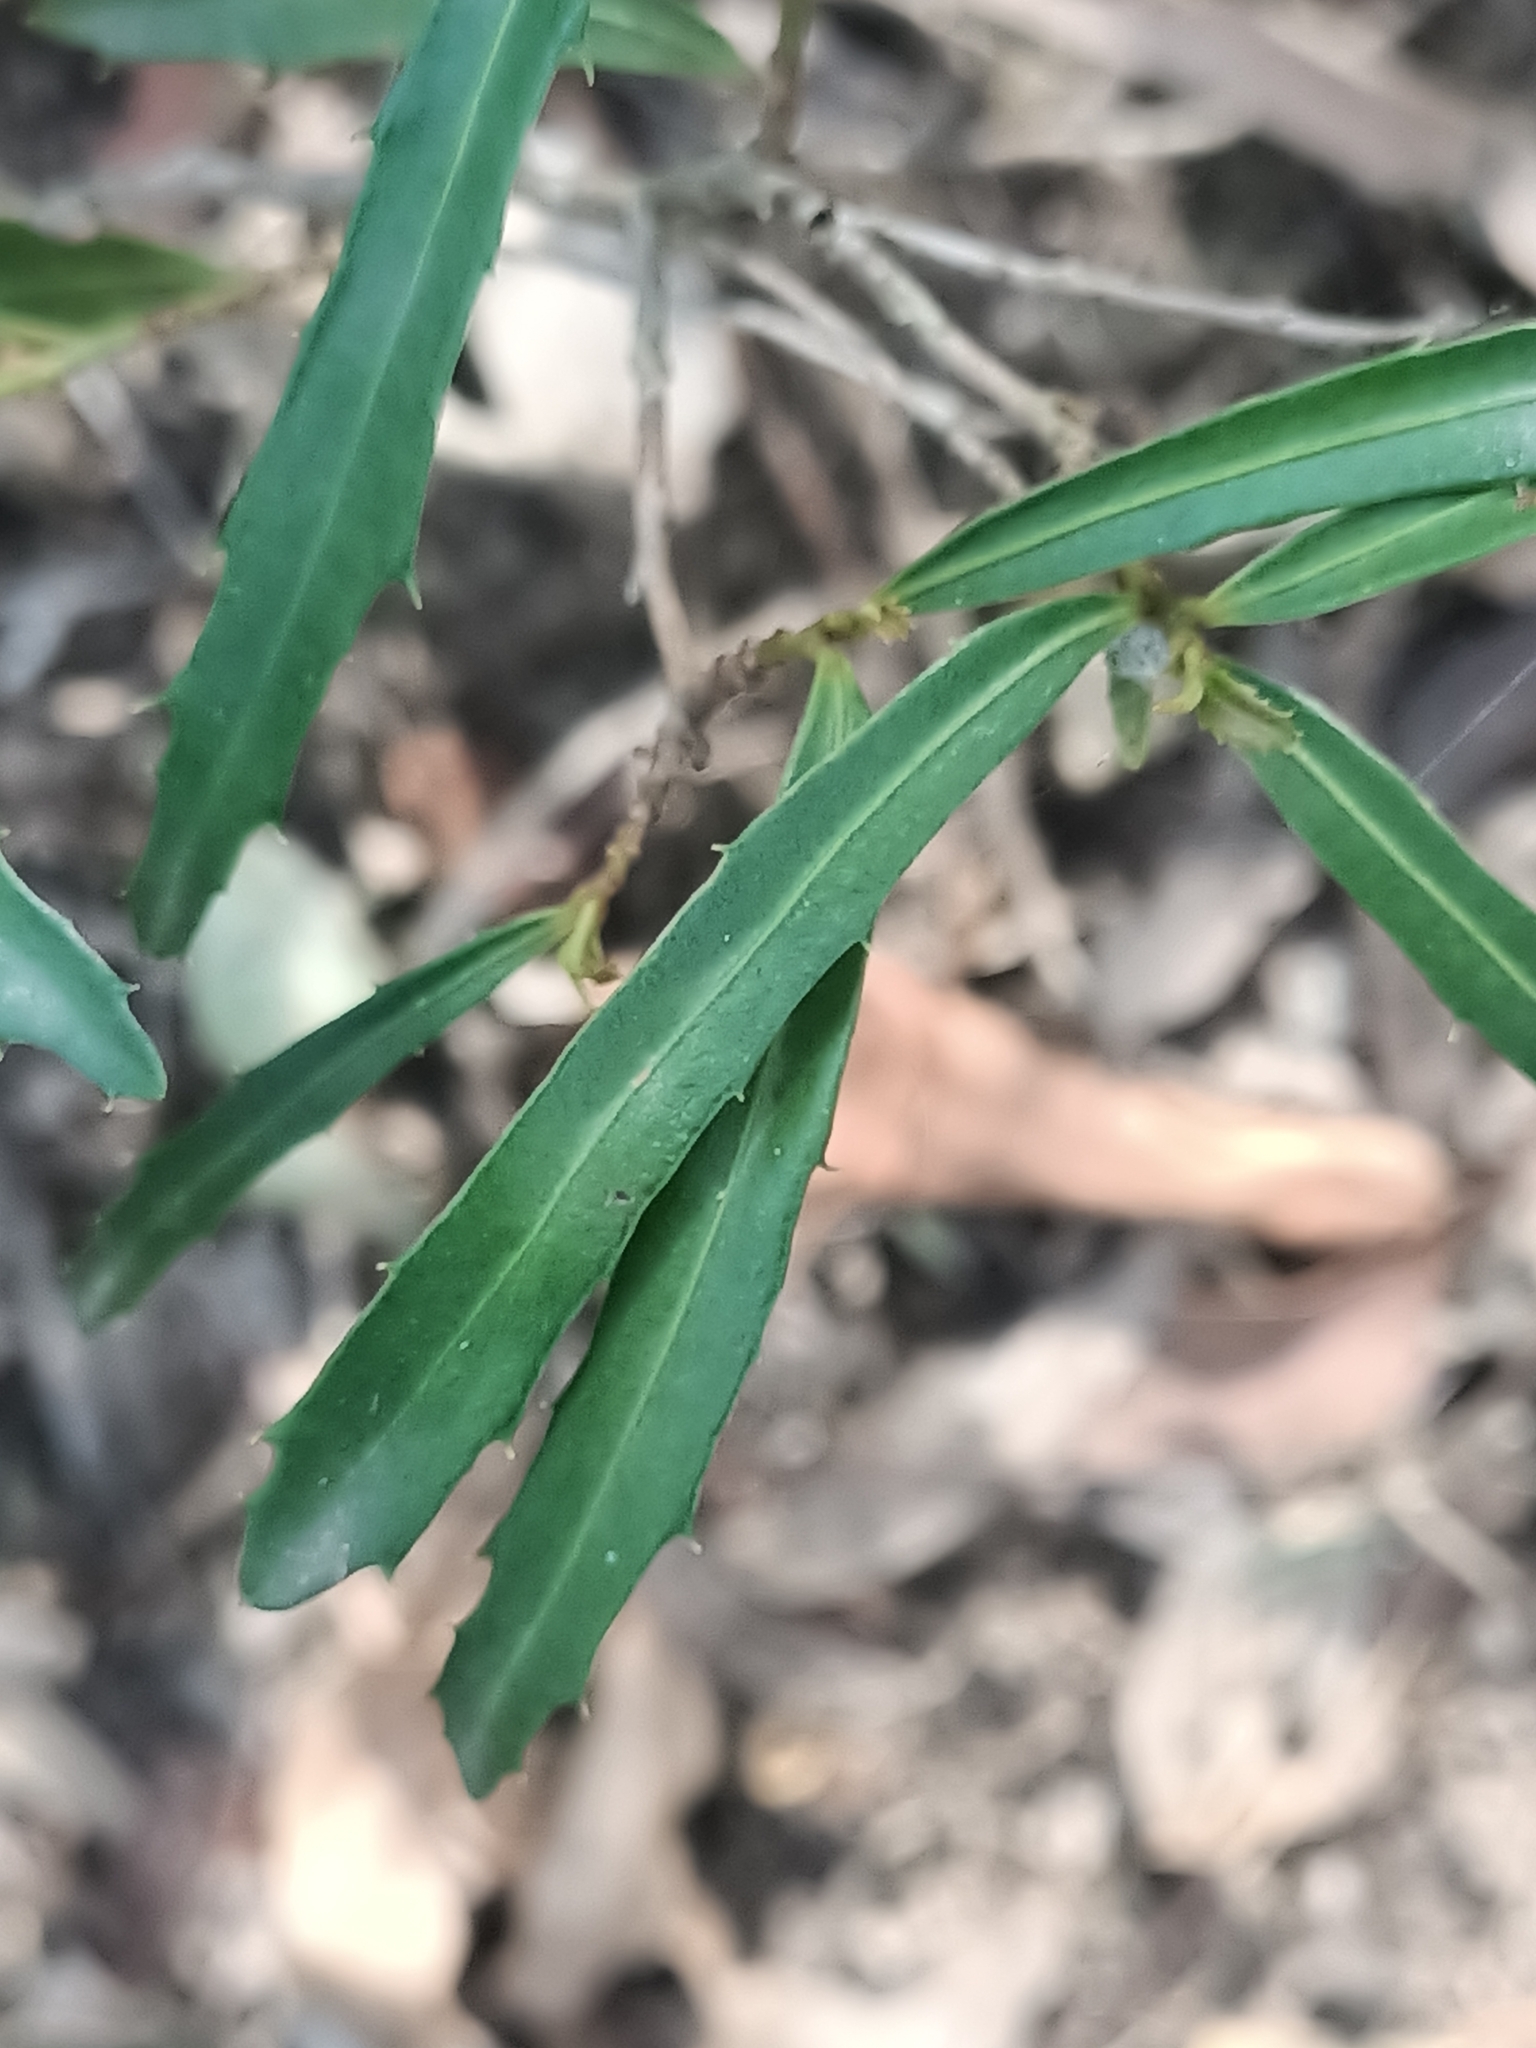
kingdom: Plantae
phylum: Tracheophyta
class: Magnoliopsida
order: Ericales
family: Primulaceae
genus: Myrsine
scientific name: Myrsine angusta
